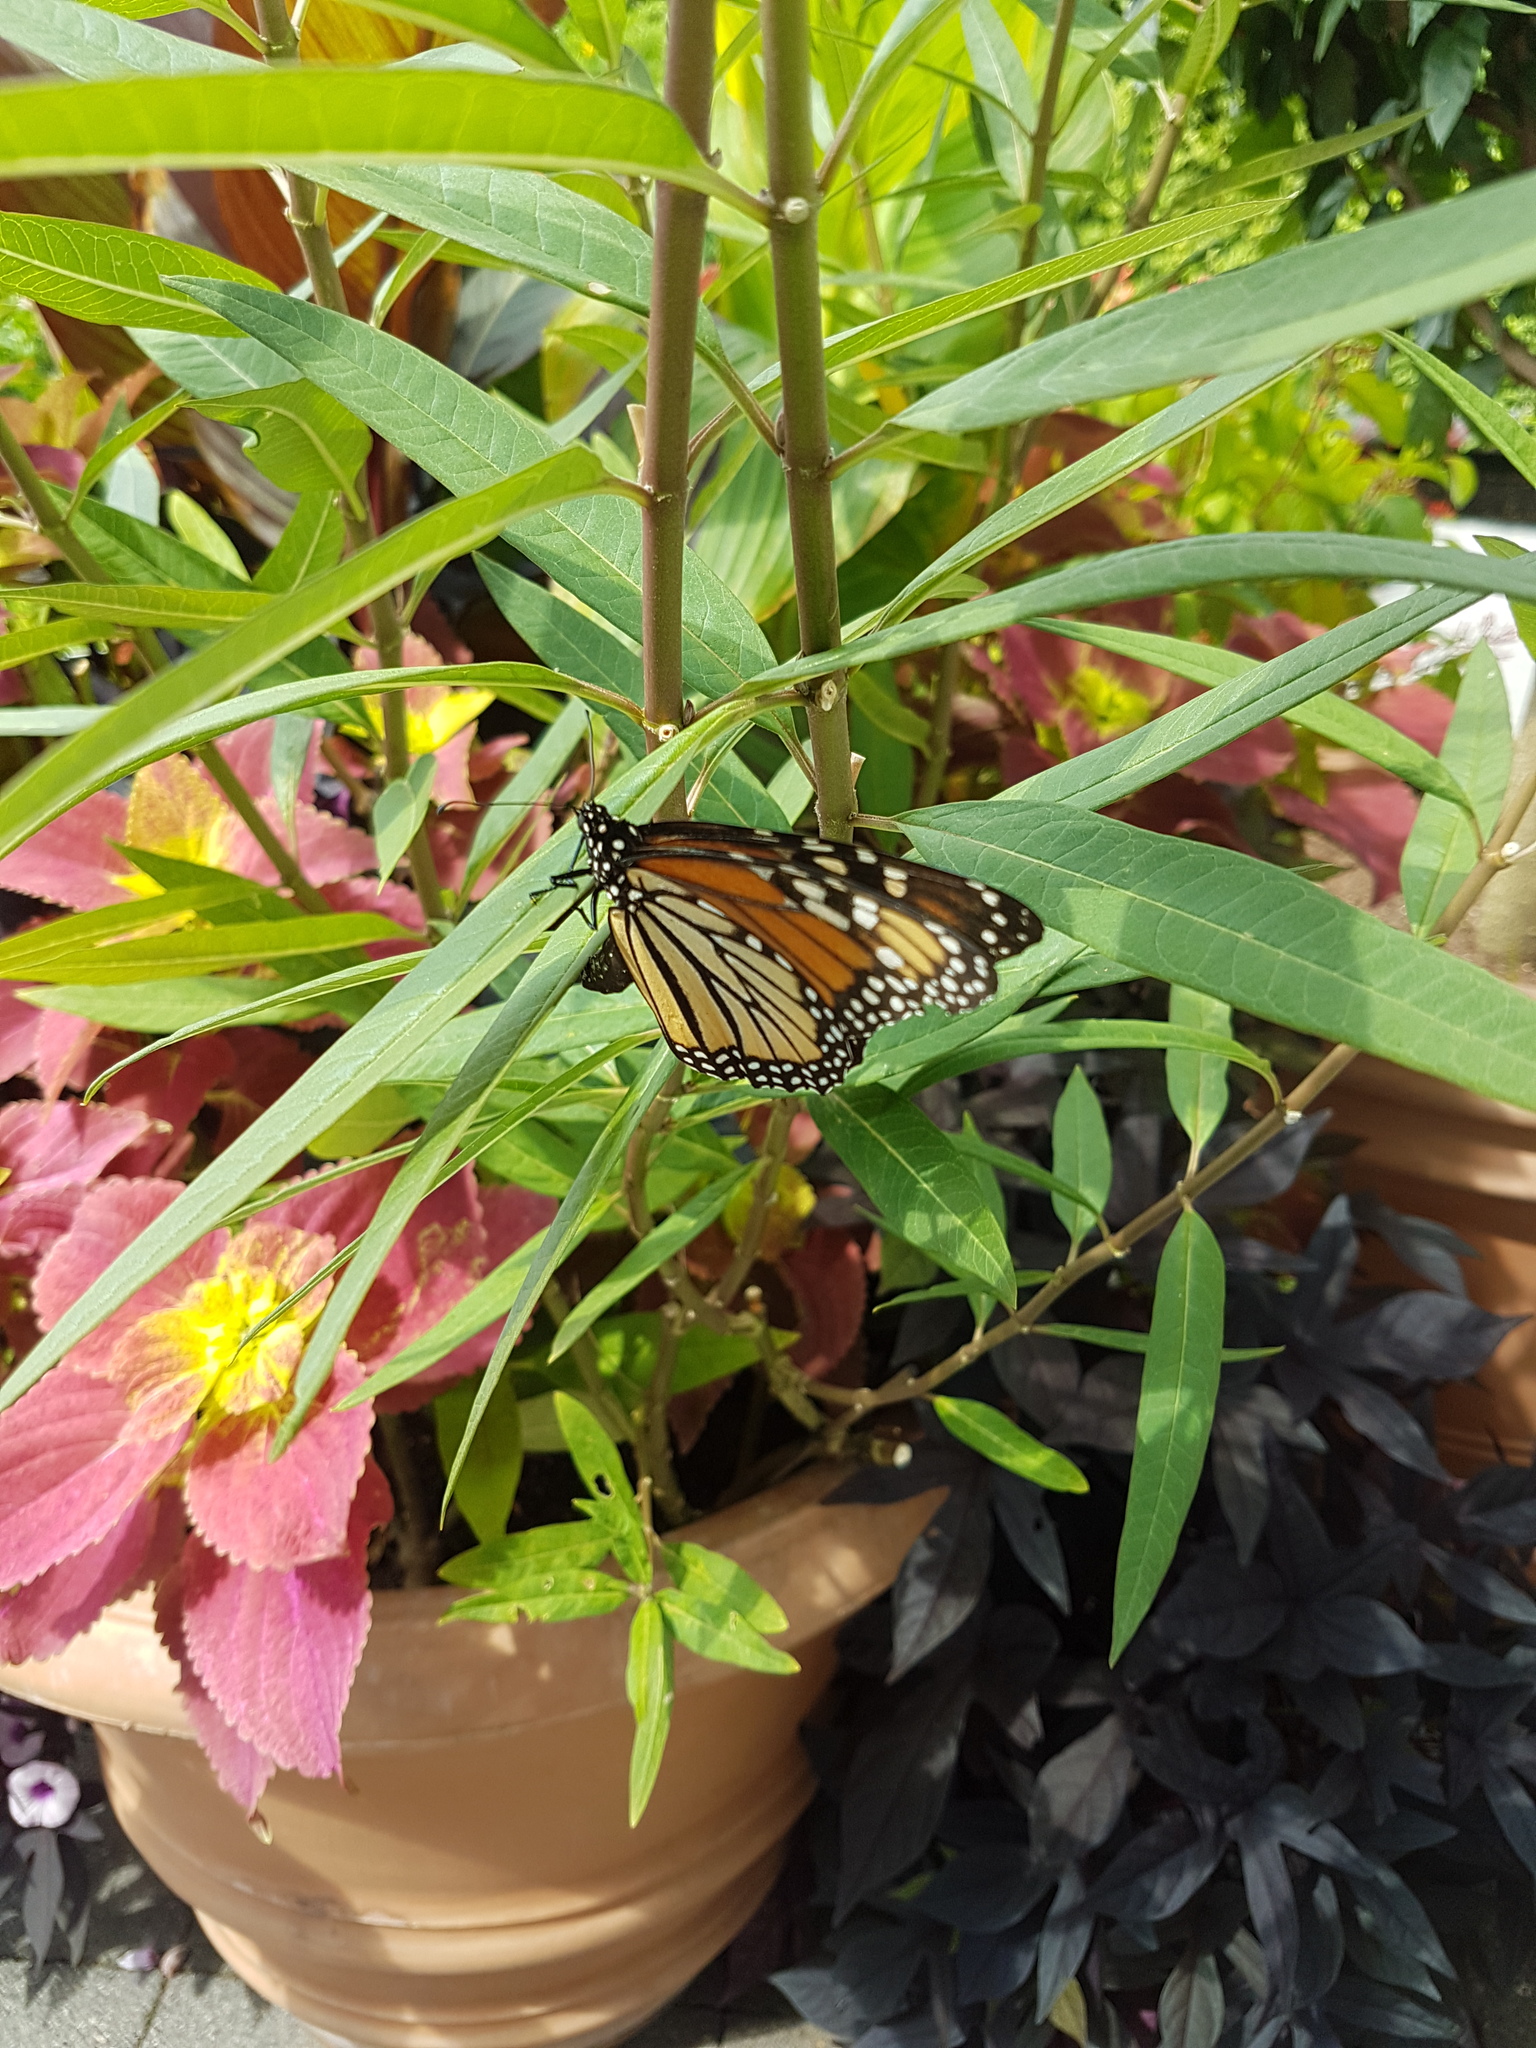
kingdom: Animalia
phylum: Arthropoda
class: Insecta
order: Lepidoptera
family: Nymphalidae
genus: Danaus
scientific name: Danaus plexippus
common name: Monarch
